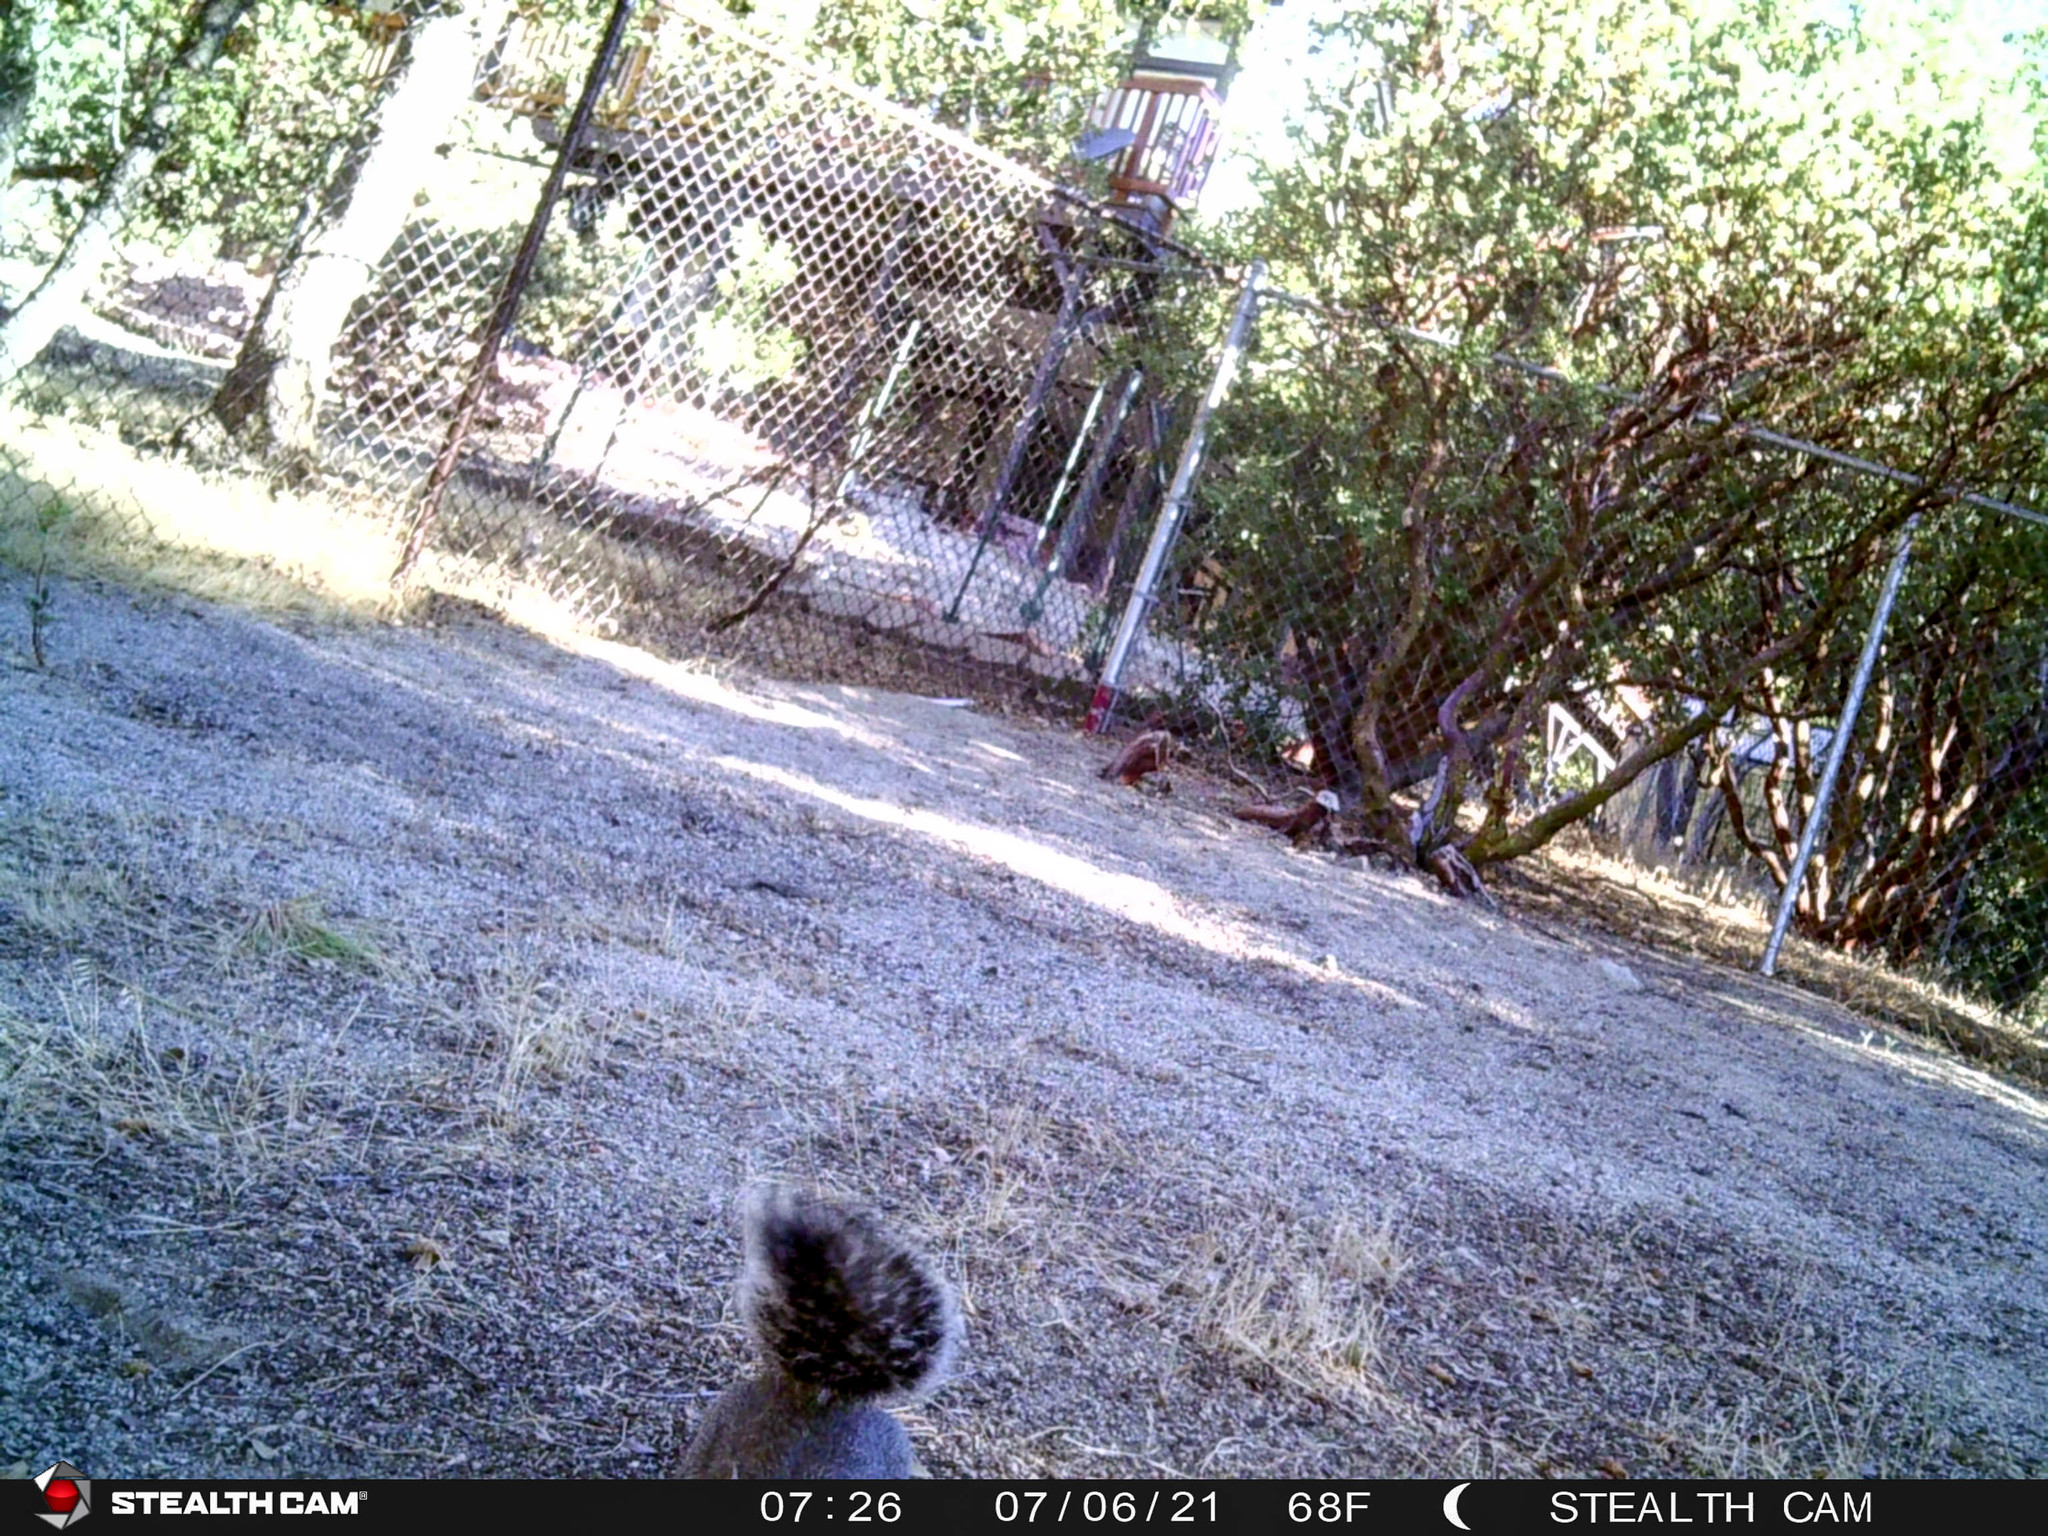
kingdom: Animalia
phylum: Chordata
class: Mammalia
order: Rodentia
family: Sciuridae
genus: Sciurus
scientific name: Sciurus griseus
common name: Western gray squirrel
